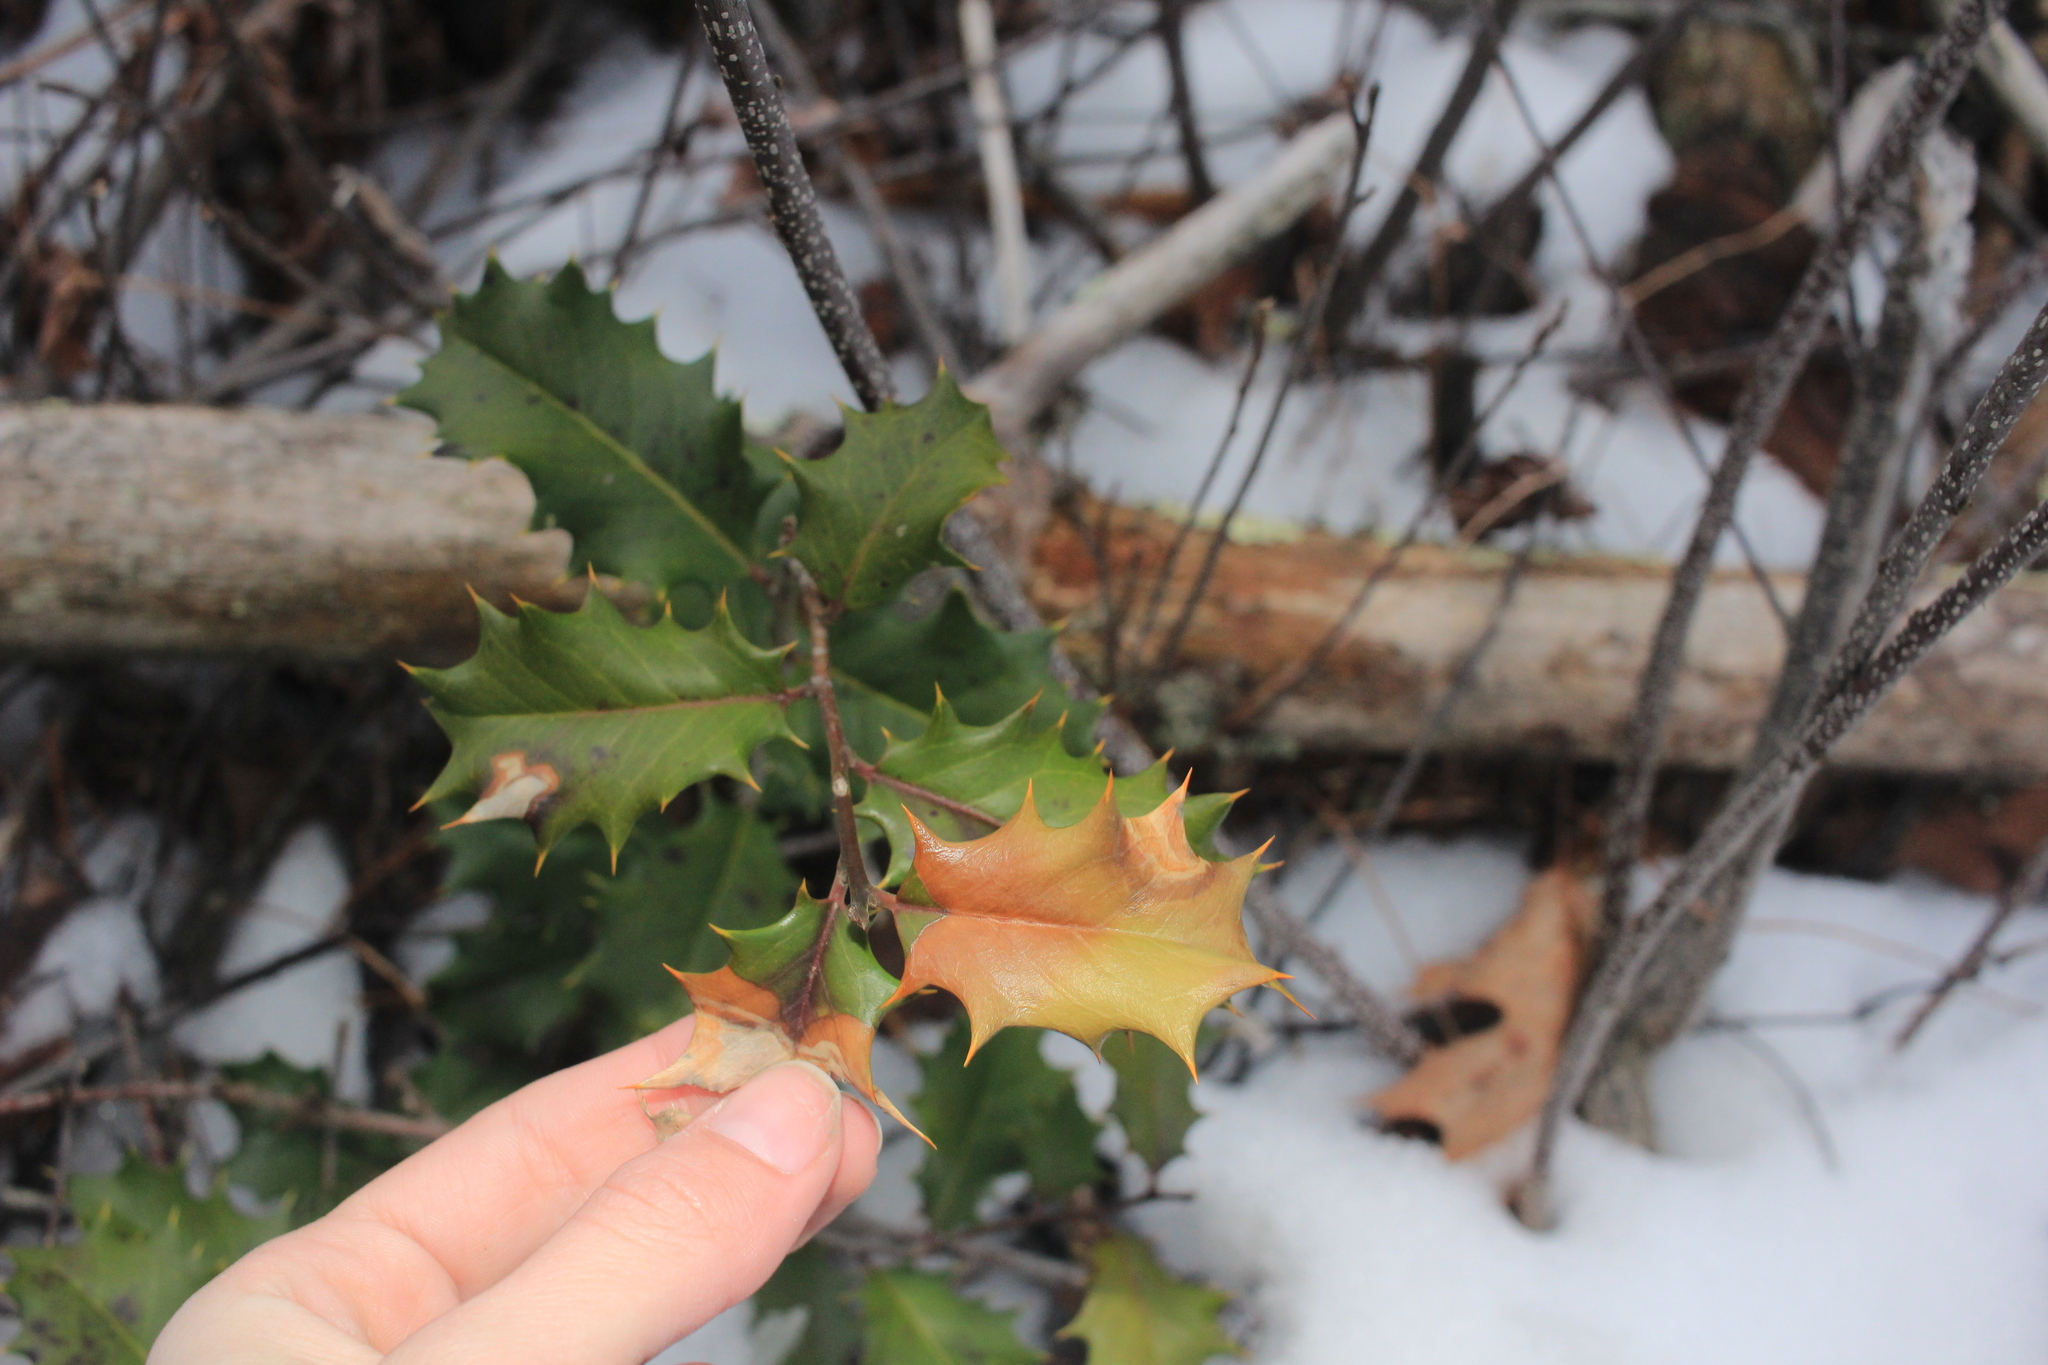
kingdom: Plantae
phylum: Tracheophyta
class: Magnoliopsida
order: Aquifoliales
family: Aquifoliaceae
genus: Ilex
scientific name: Ilex opaca
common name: American holly
